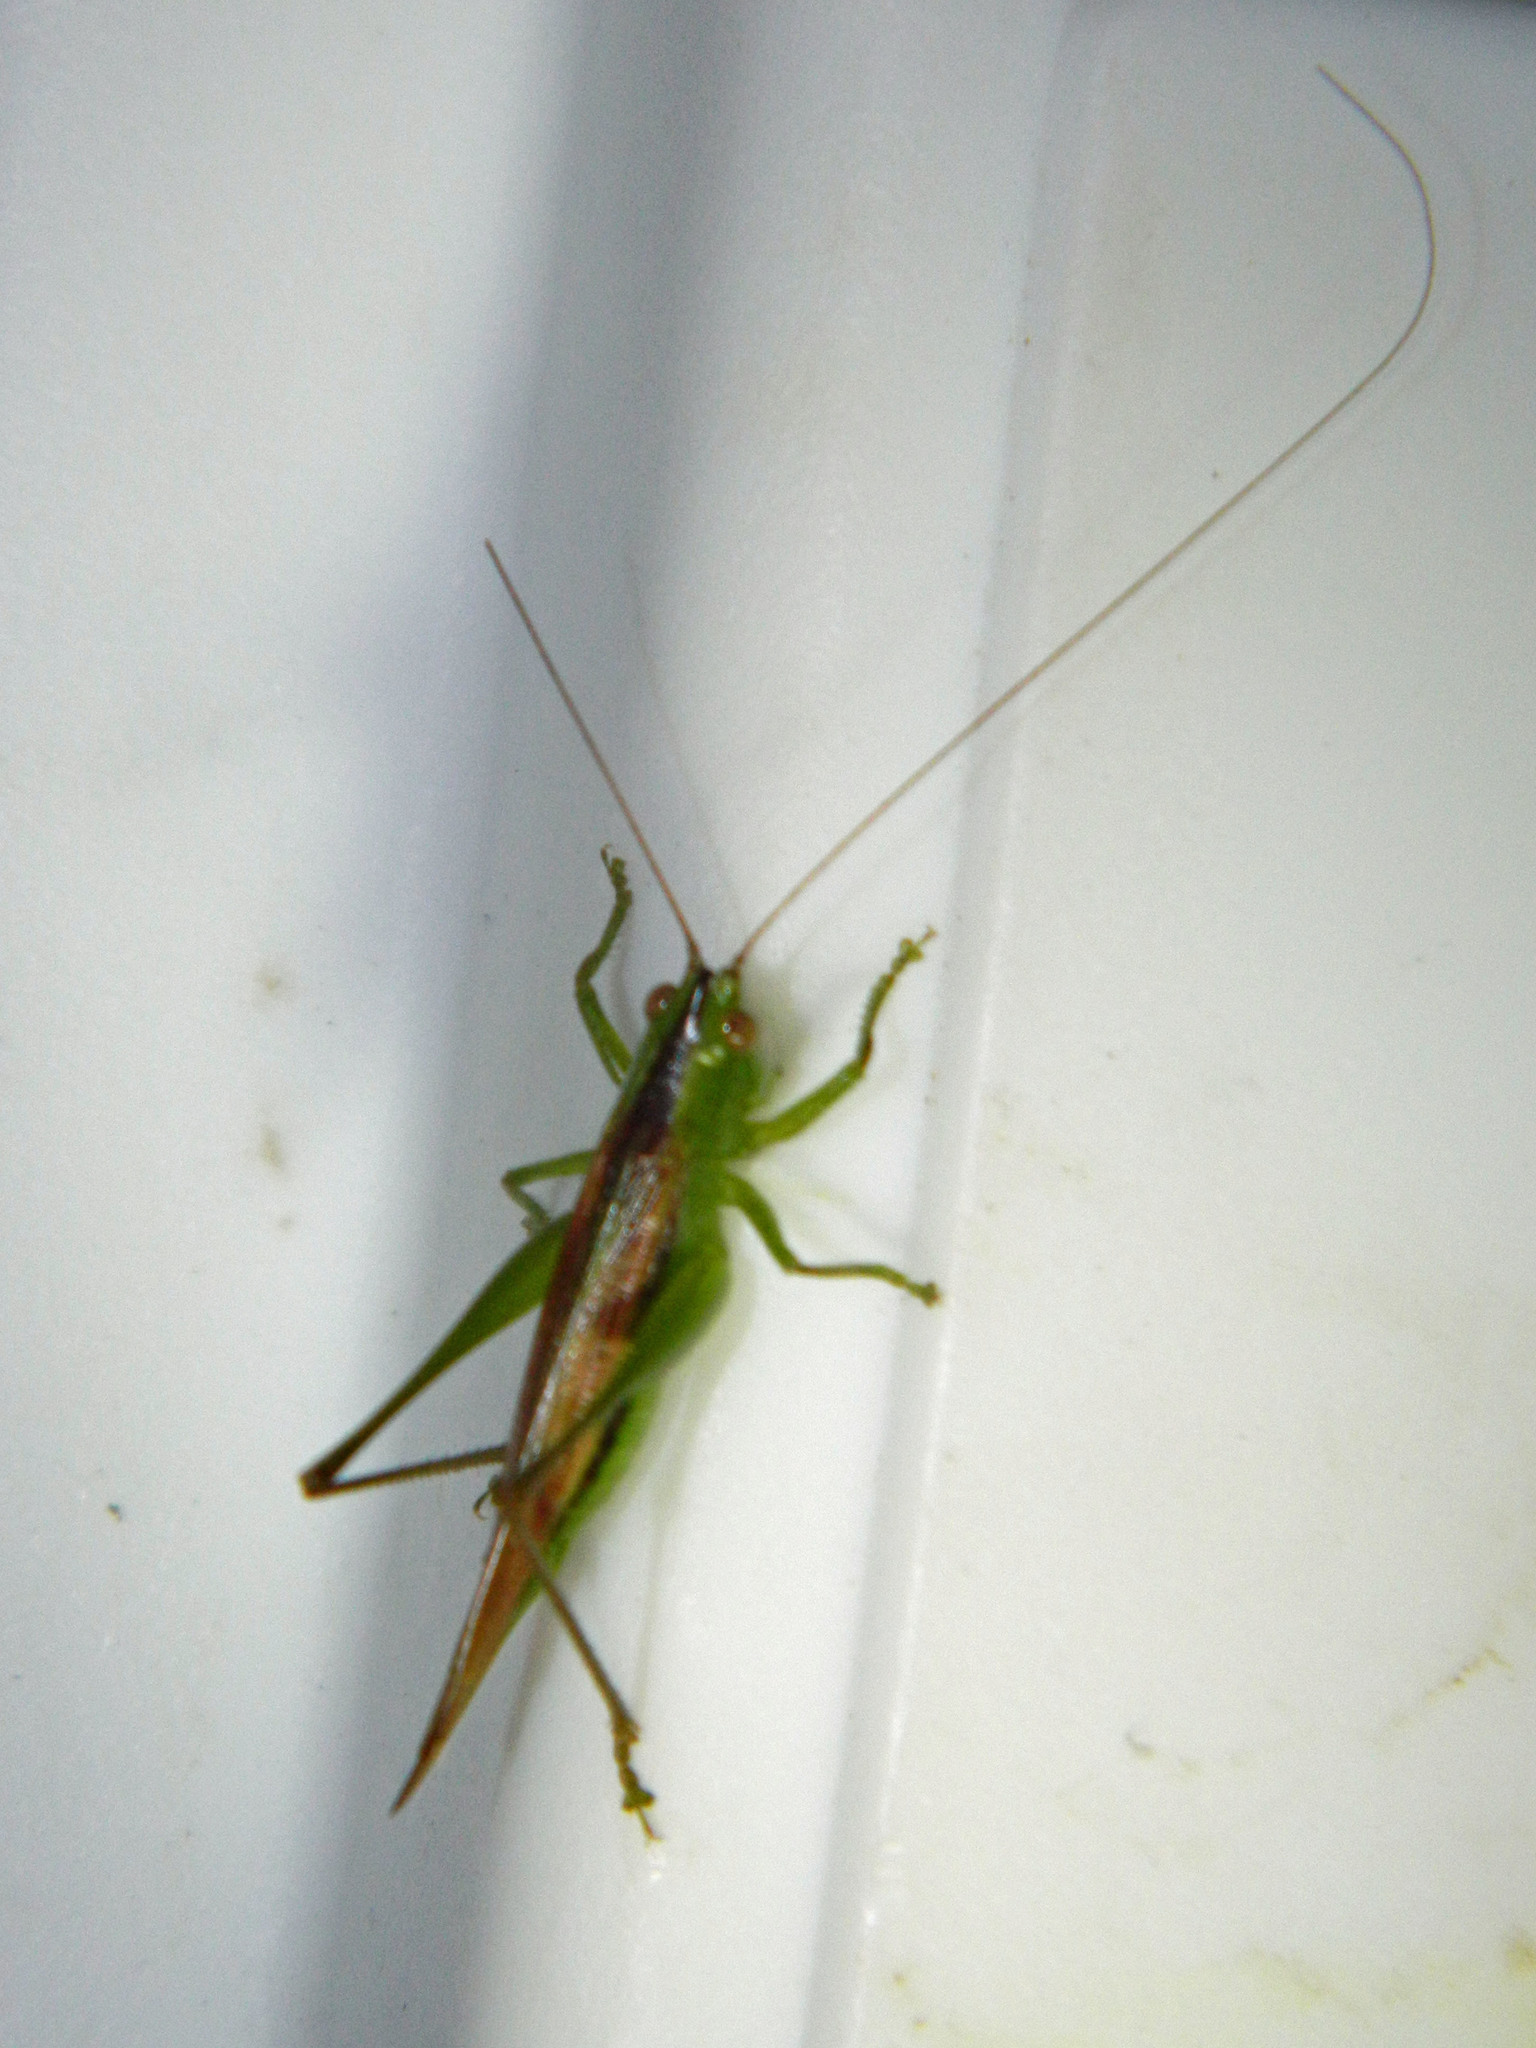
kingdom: Animalia
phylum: Arthropoda
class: Insecta
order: Orthoptera
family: Tettigoniidae
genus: Conocephalus
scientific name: Conocephalus fasciatus
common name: Slender meadow katydid
